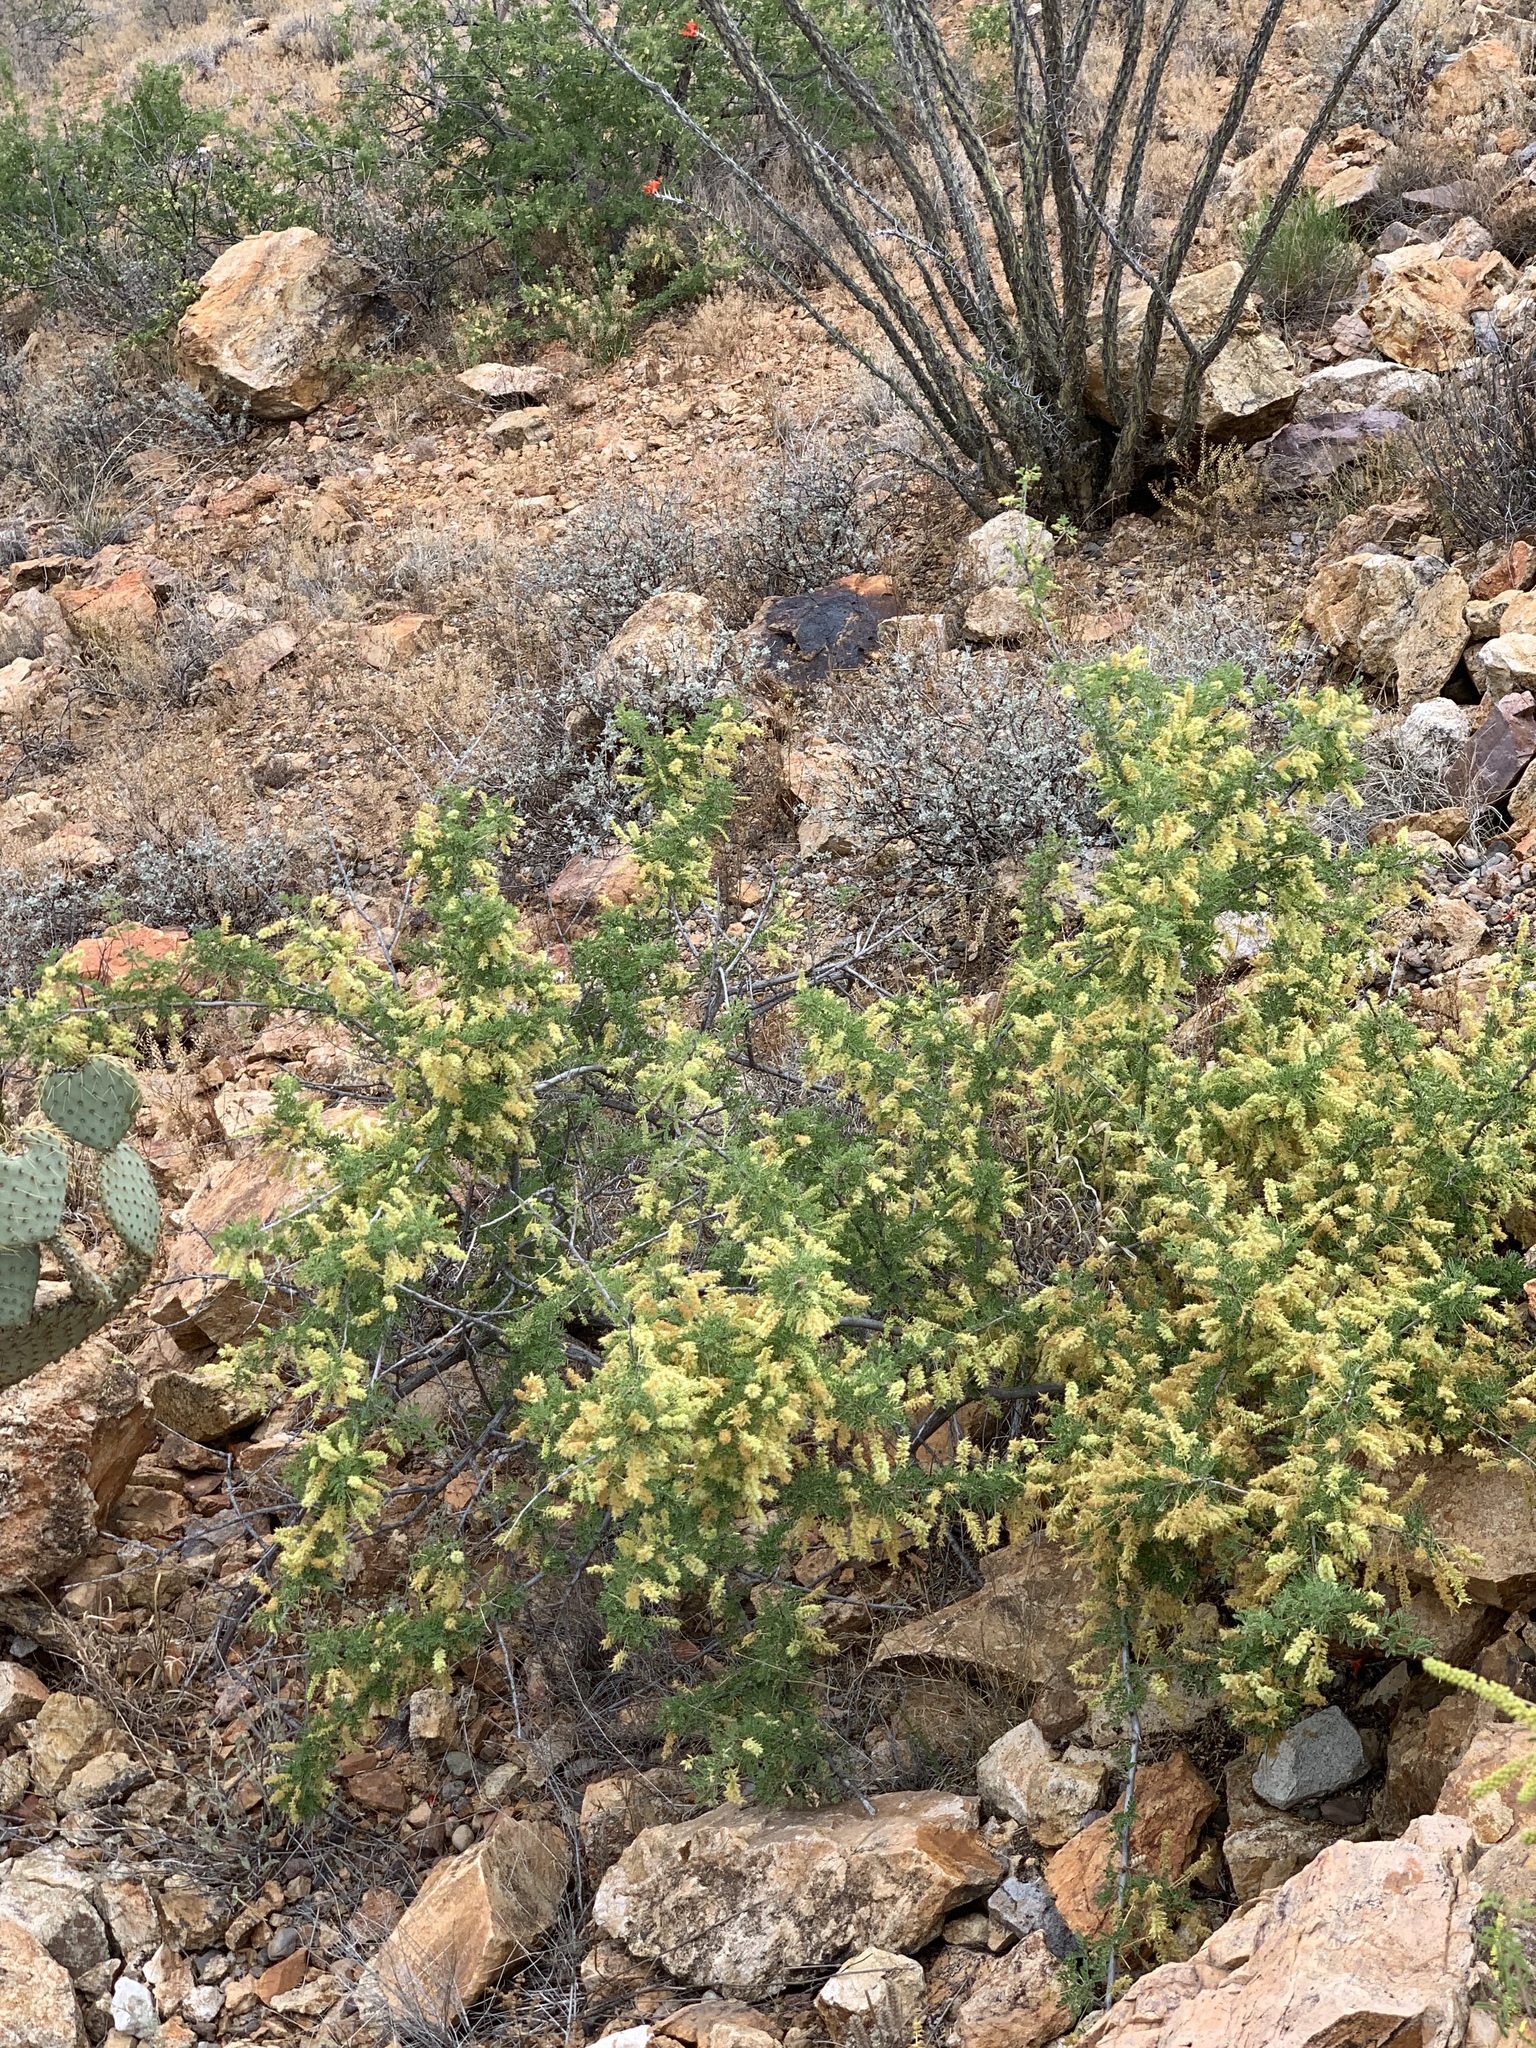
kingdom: Plantae
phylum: Tracheophyta
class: Magnoliopsida
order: Fabales
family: Fabaceae
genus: Senegalia
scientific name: Senegalia greggii
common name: Texas-mimosa
